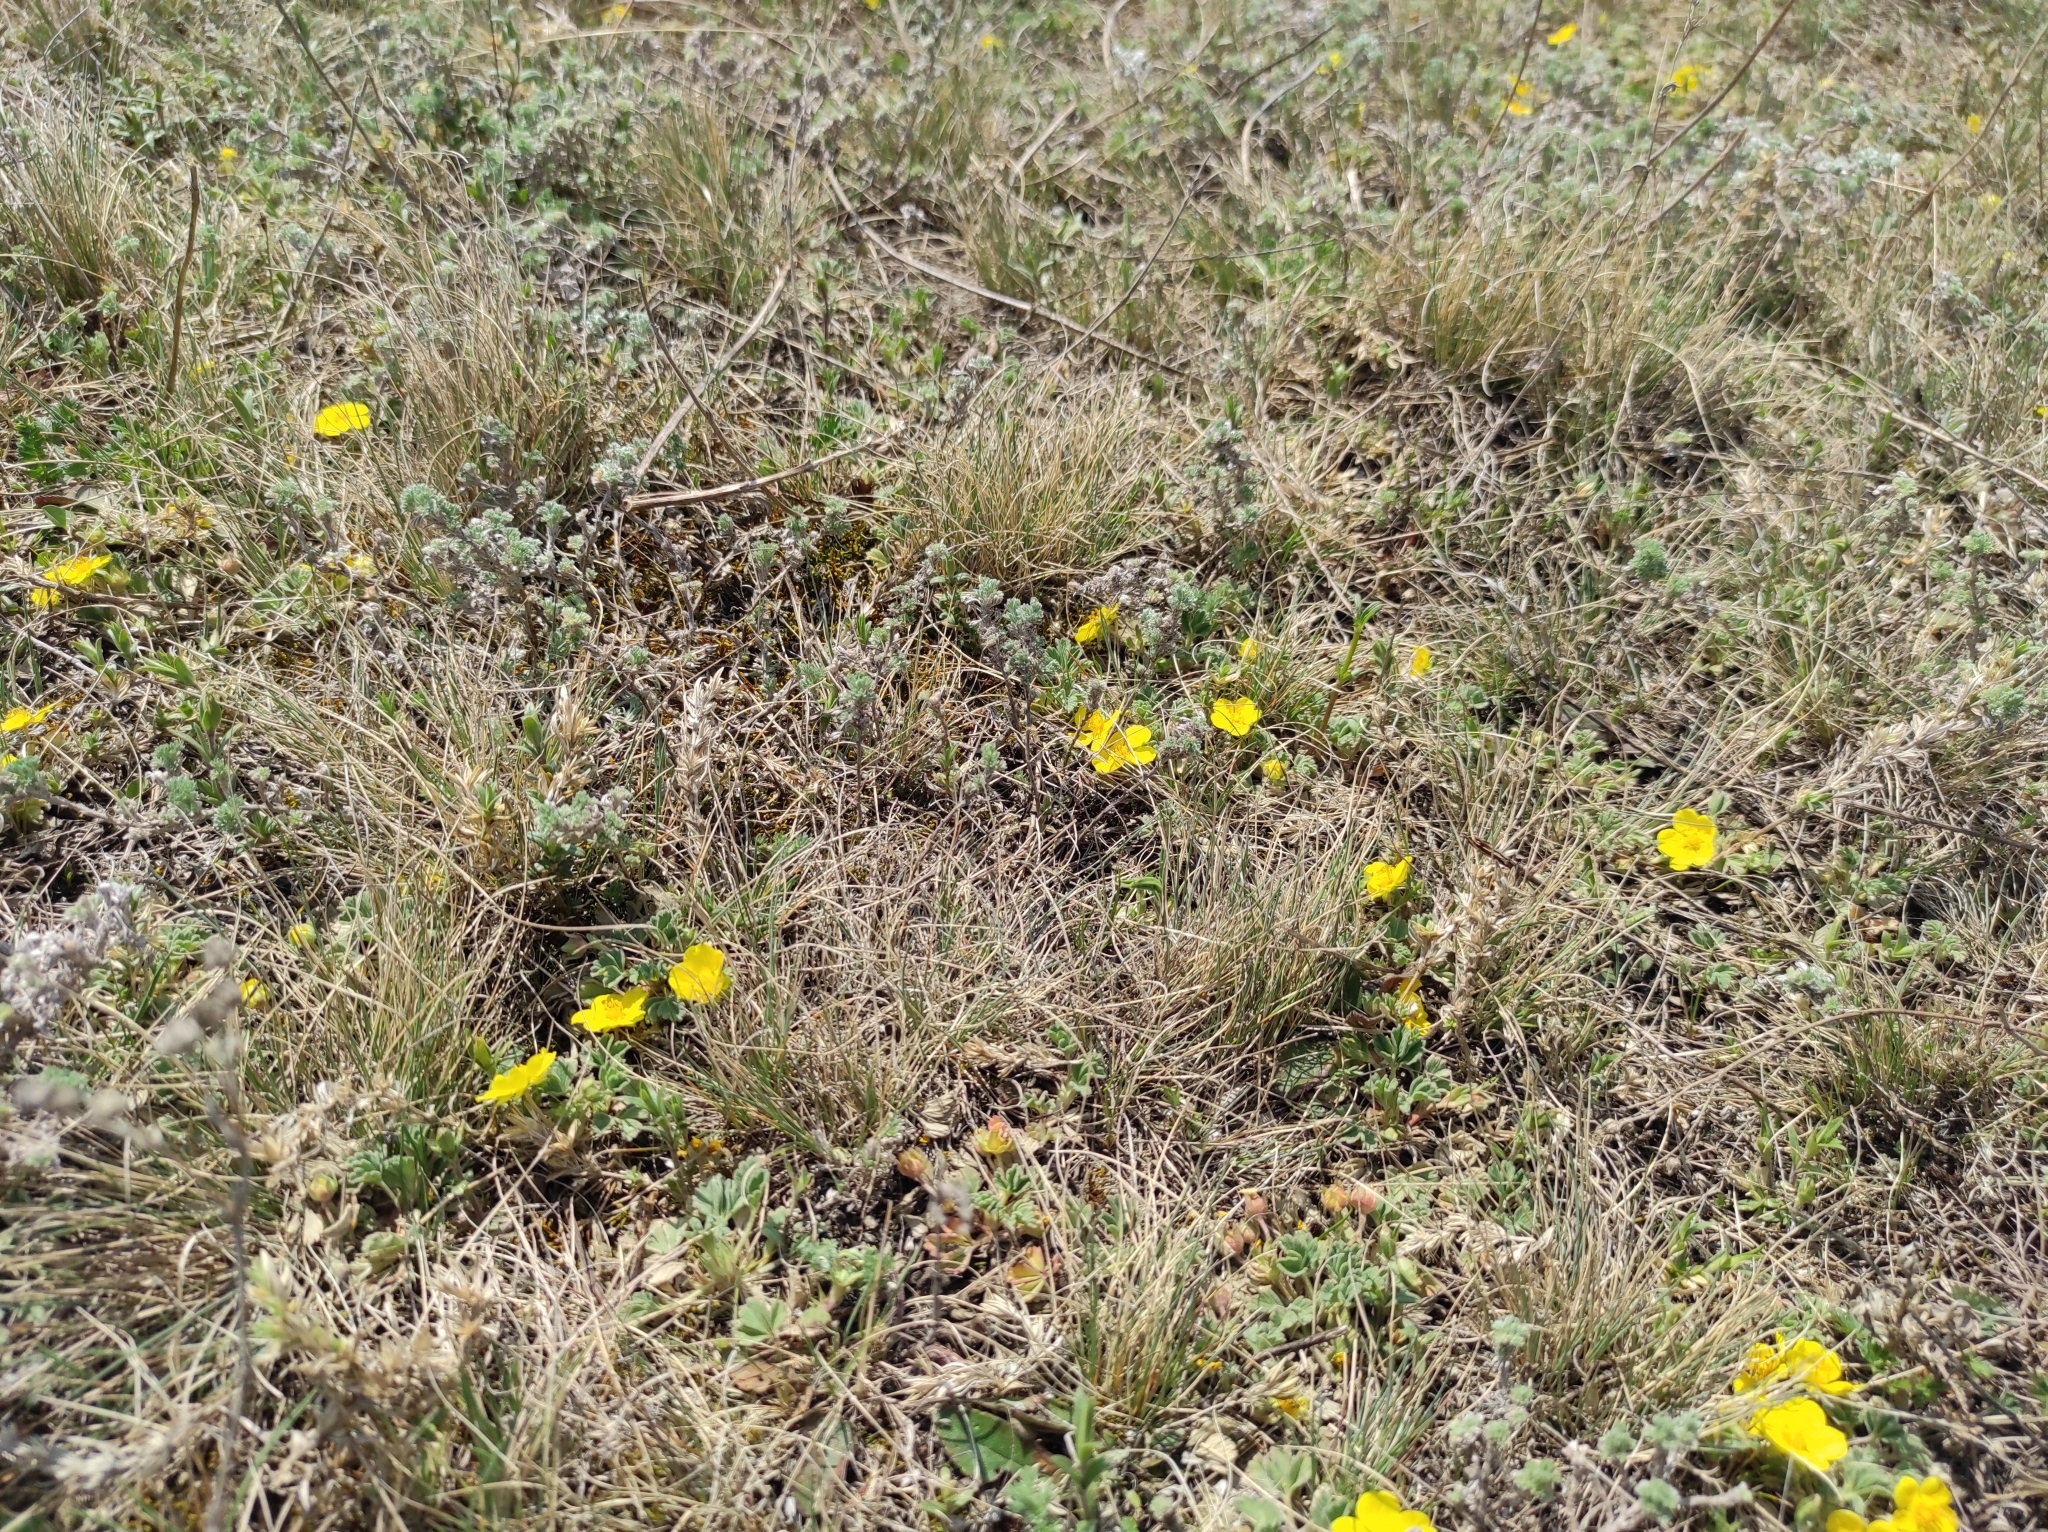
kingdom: Plantae
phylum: Tracheophyta
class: Magnoliopsida
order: Rosales
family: Rosaceae
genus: Potentilla
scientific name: Potentilla acaulis
